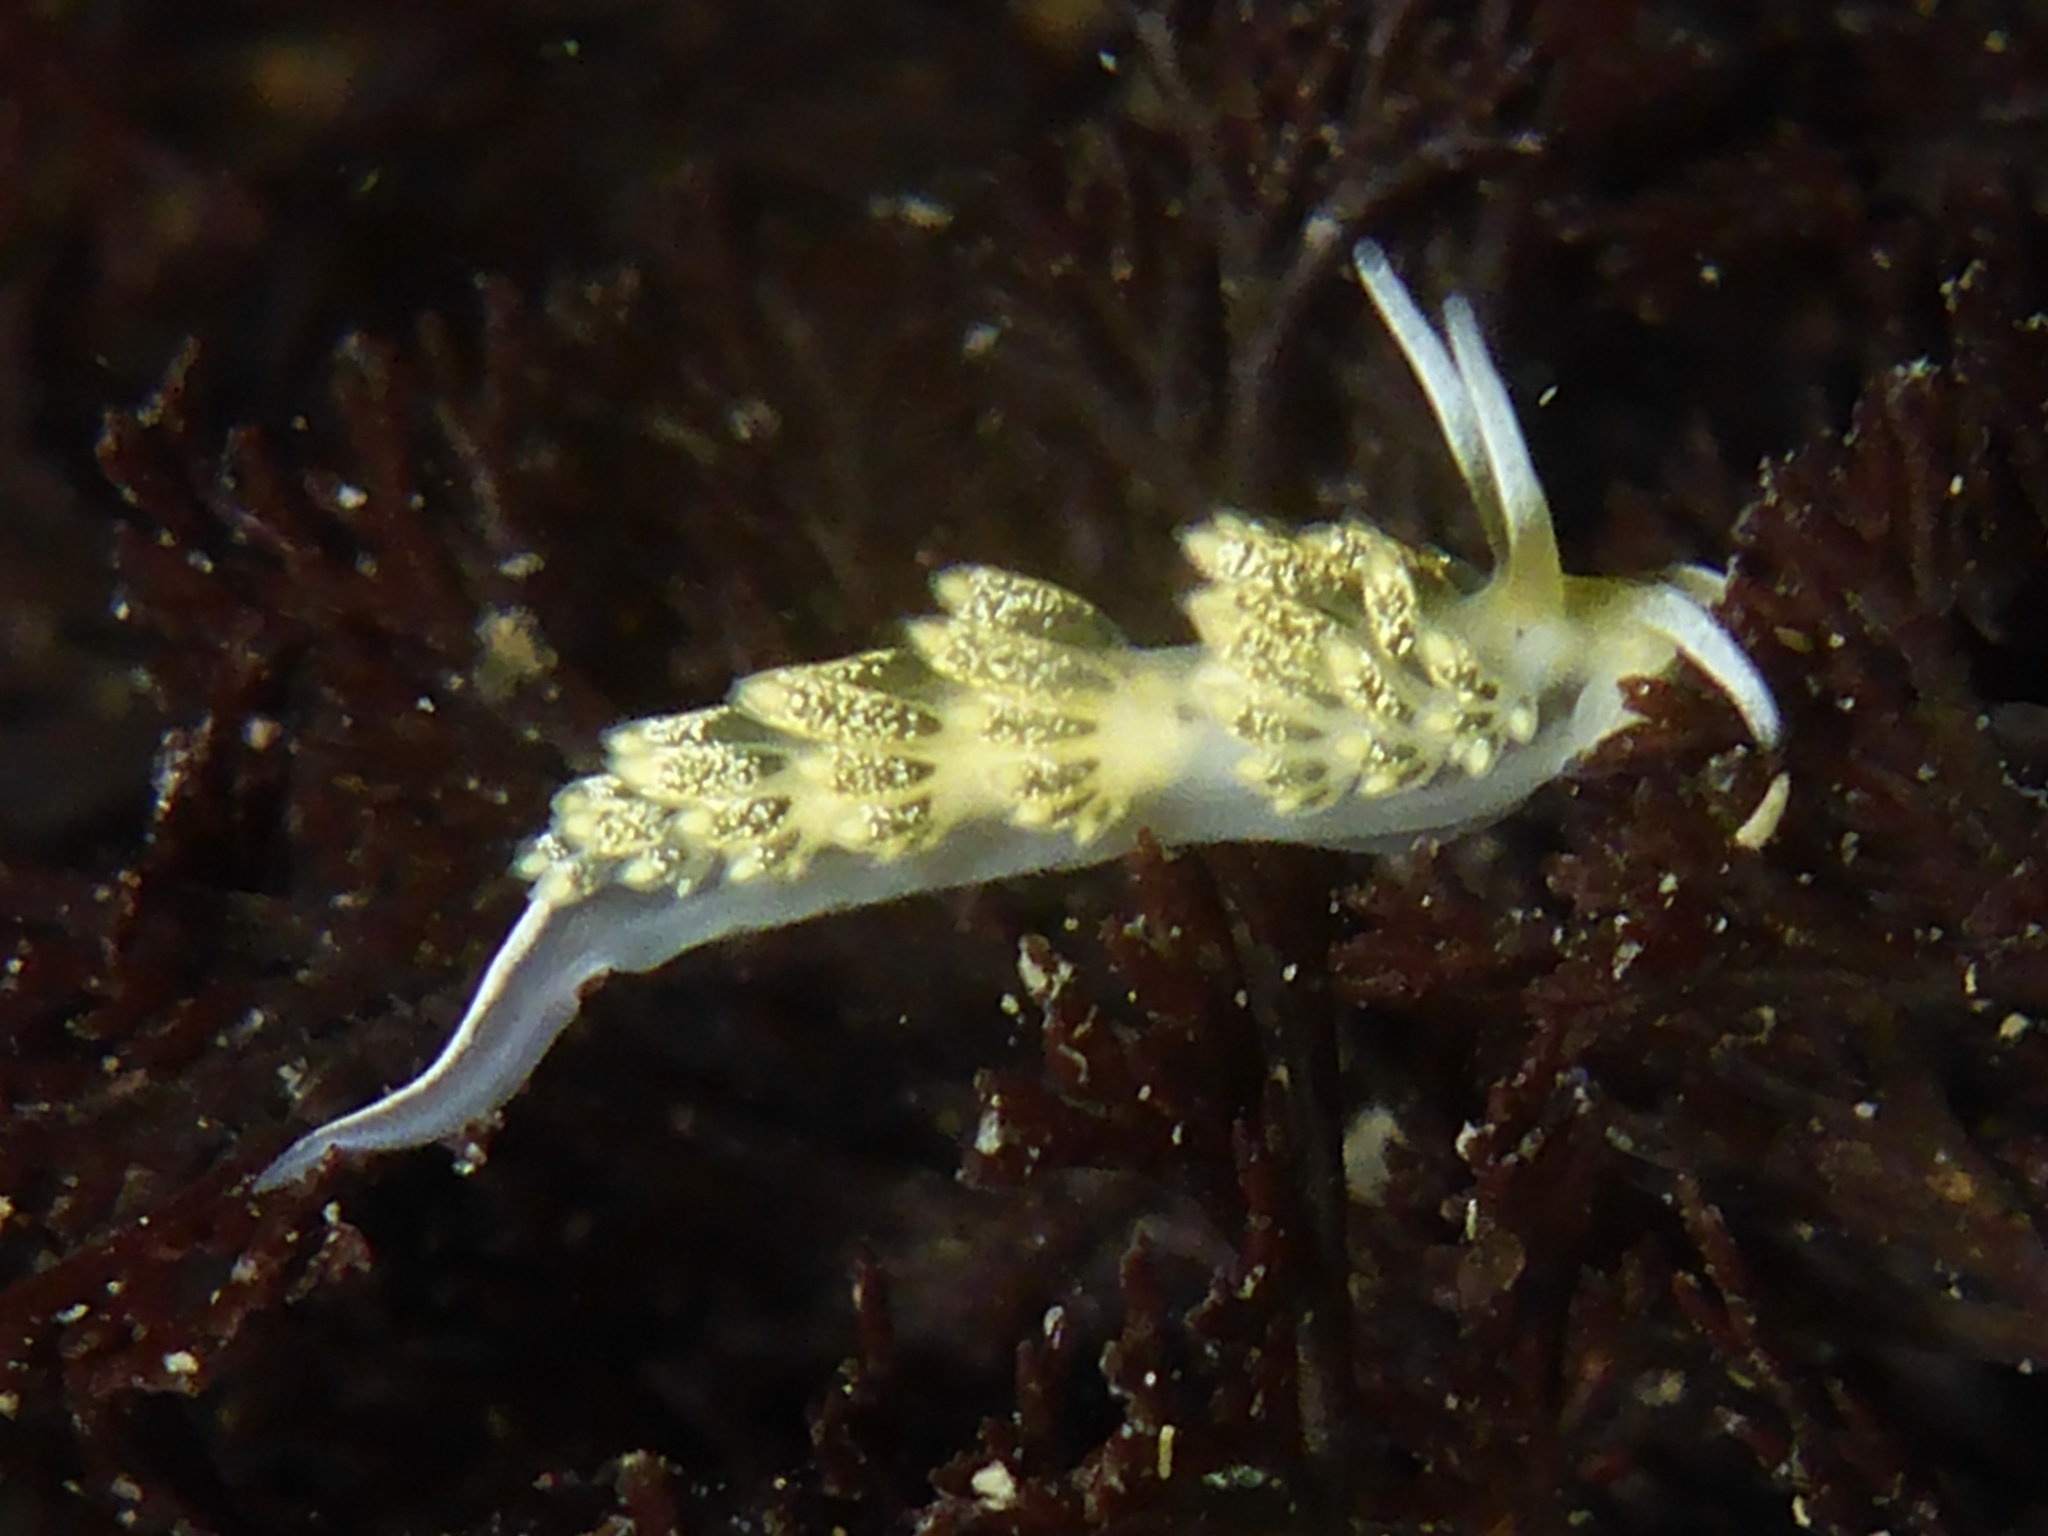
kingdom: Animalia
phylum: Mollusca
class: Gastropoda
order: Nudibranchia
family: Trinchesiidae
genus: Diaphoreolis
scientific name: Diaphoreolis flavovulta
